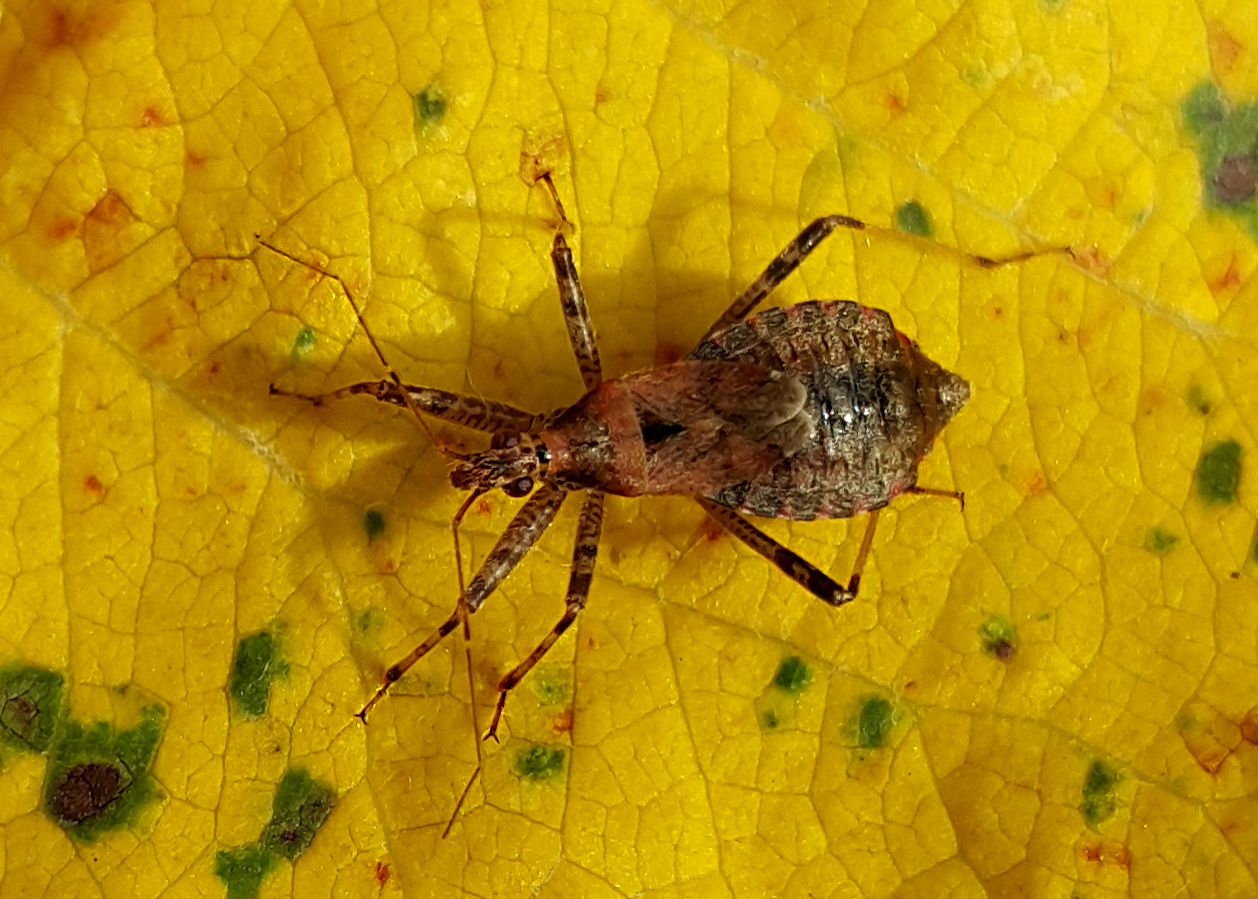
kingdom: Animalia
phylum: Arthropoda
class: Insecta
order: Hemiptera
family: Nabidae
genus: Himacerus
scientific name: Himacerus apterus
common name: Tree damsel bug
